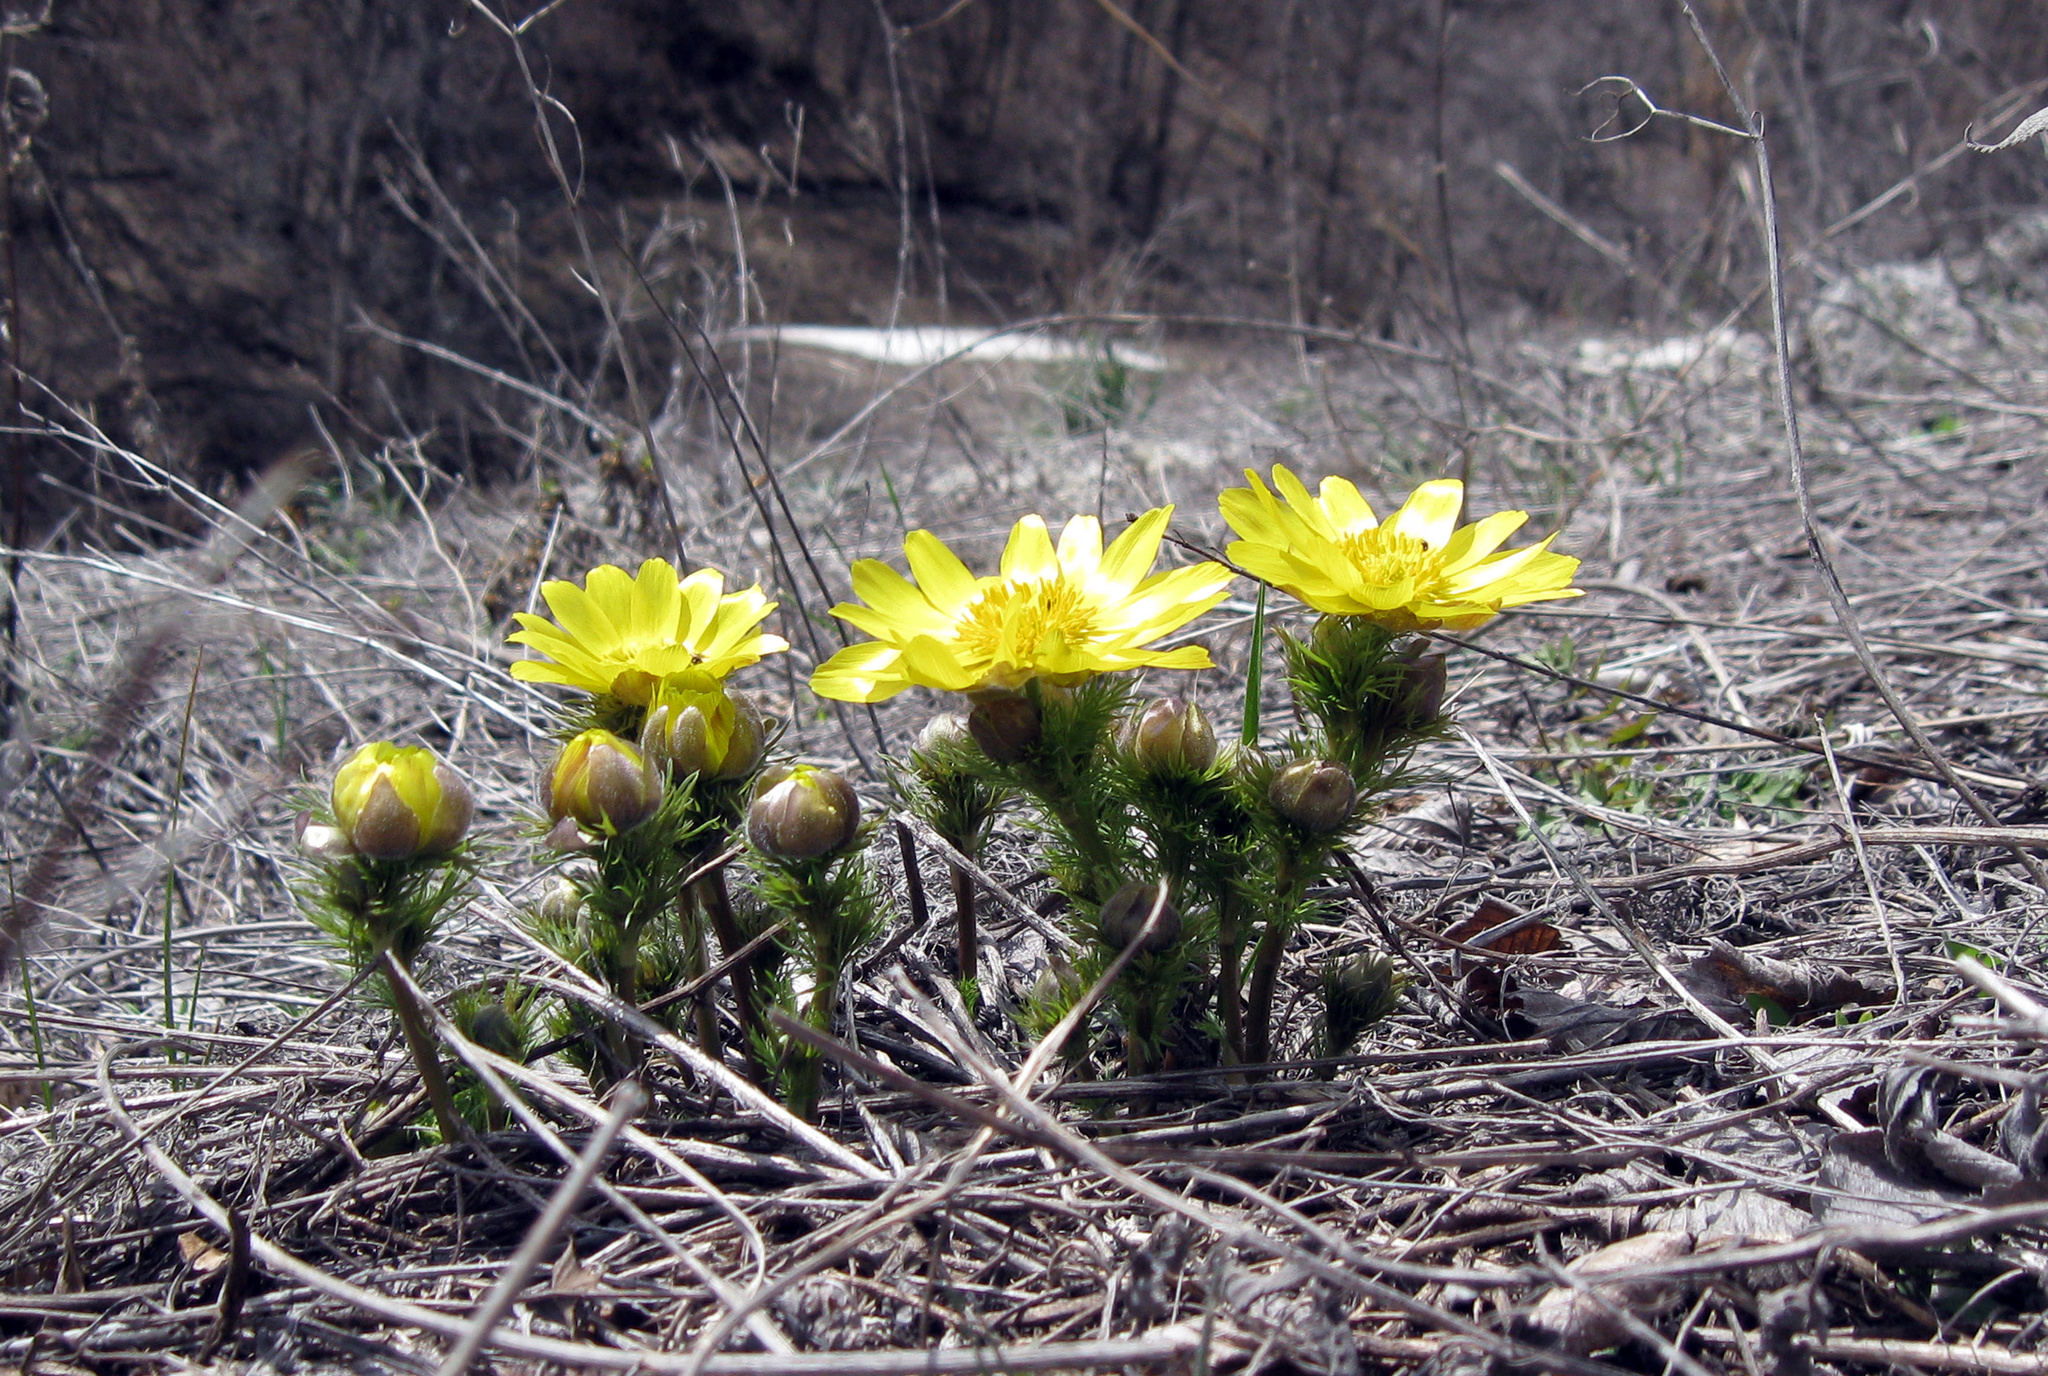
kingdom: Plantae
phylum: Tracheophyta
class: Magnoliopsida
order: Ranunculales
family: Ranunculaceae
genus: Adonis
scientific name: Adonis vernalis
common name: Yellow pheasants-eye
